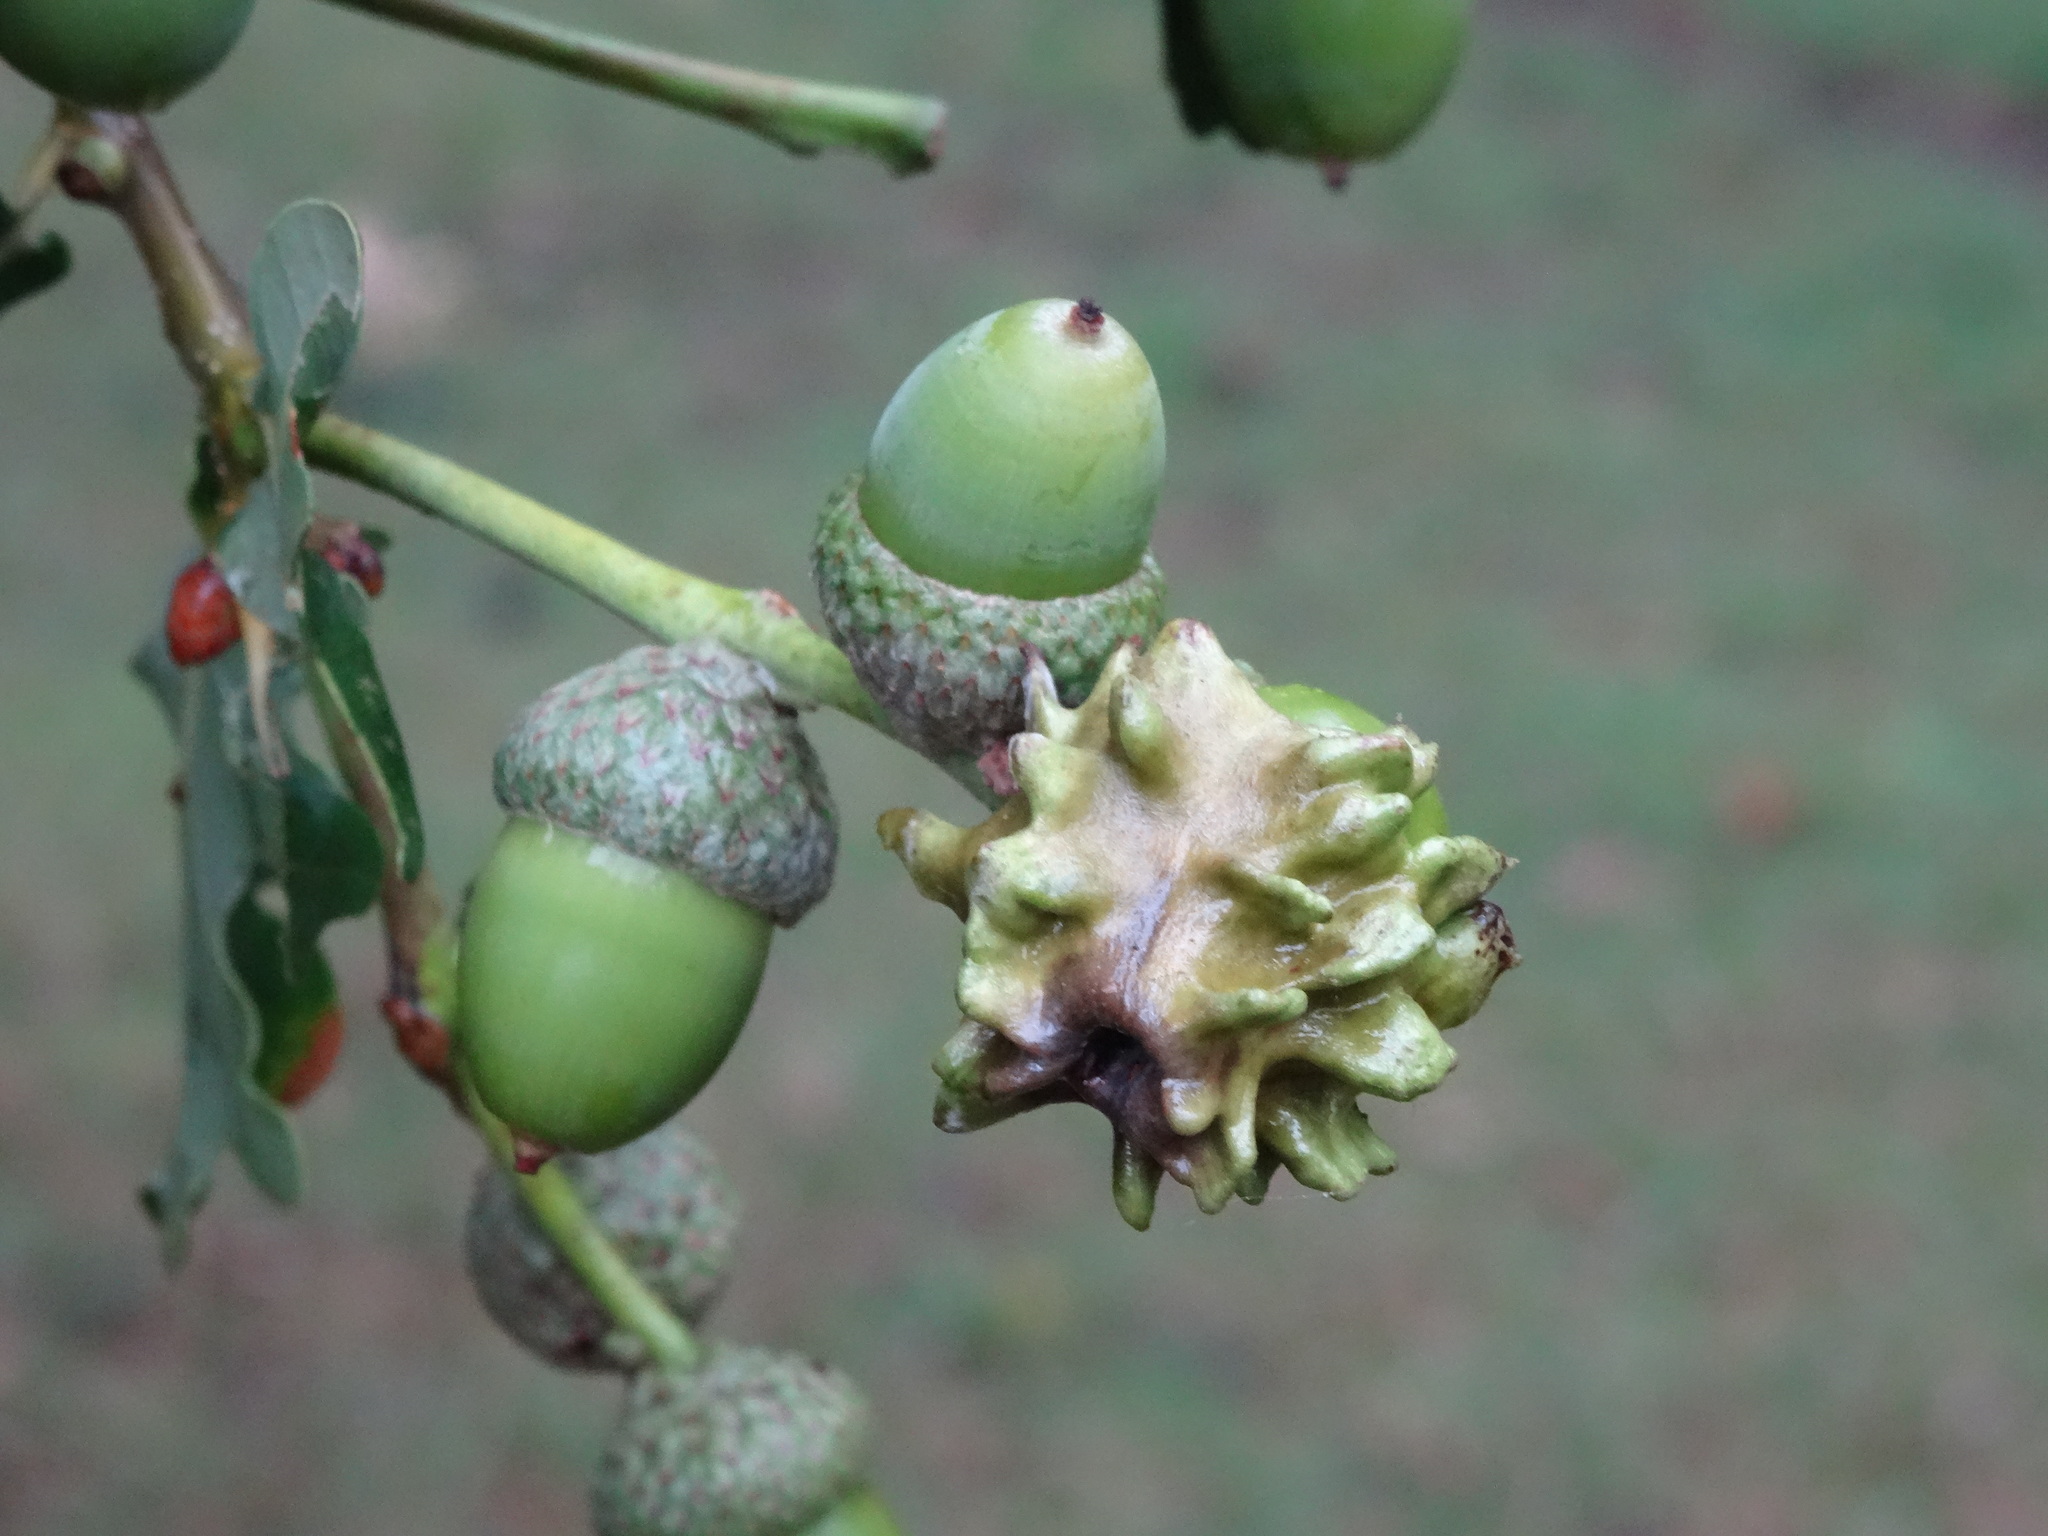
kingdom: Animalia
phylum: Arthropoda
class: Insecta
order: Hymenoptera
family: Cynipidae
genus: Andricus
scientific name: Andricus quercuscalicis
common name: Knopper gall
